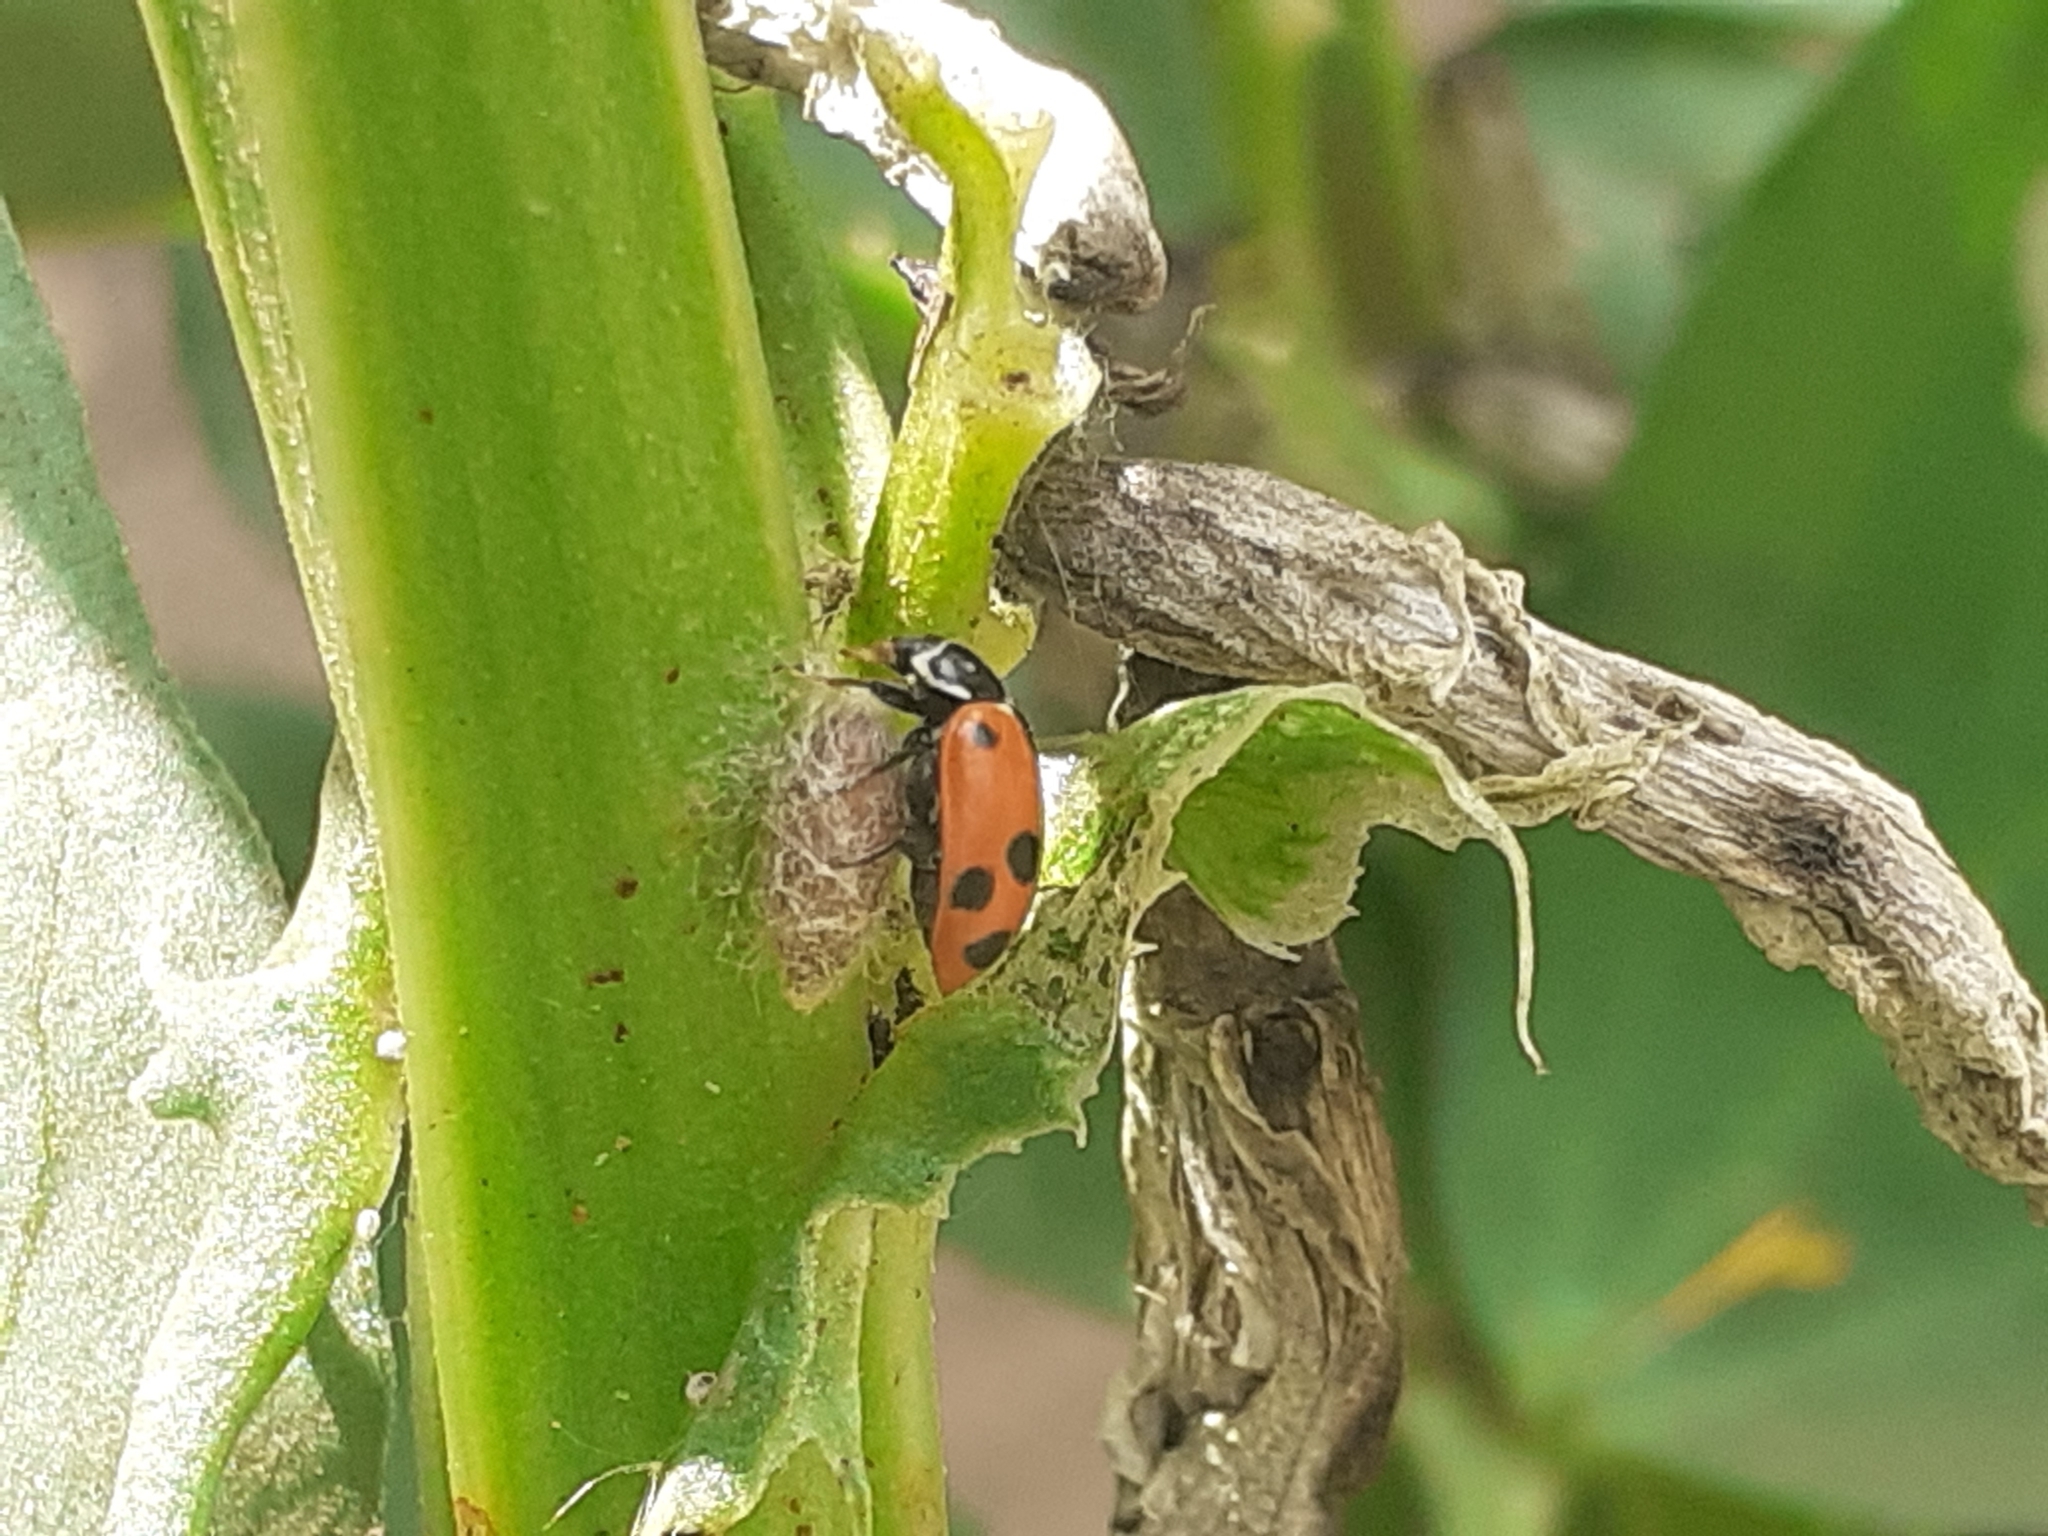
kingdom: Animalia
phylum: Arthropoda
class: Insecta
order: Coleoptera
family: Coccinellidae
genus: Hippodamia
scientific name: Hippodamia variegata
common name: Ladybird beetle
